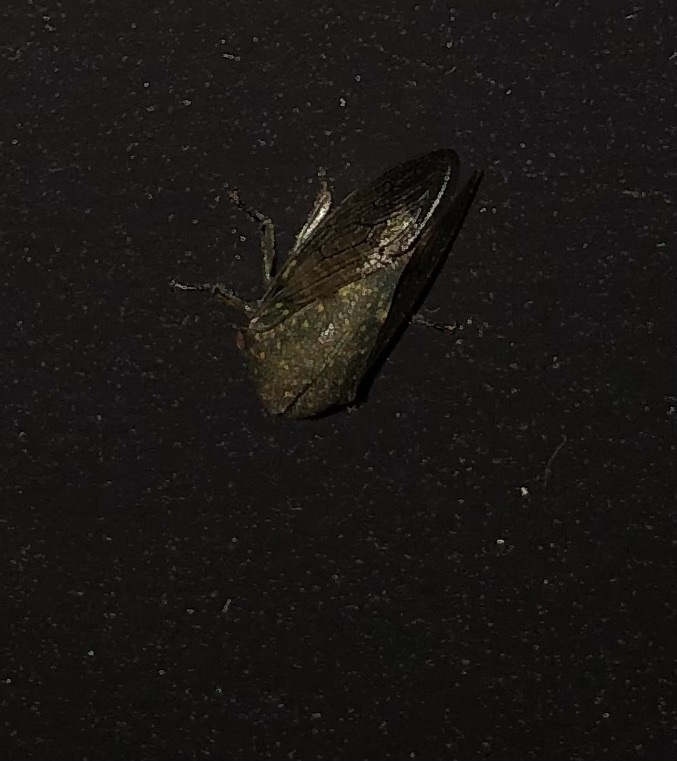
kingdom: Animalia
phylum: Arthropoda
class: Insecta
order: Hemiptera
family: Membracidae
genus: Platycotis
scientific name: Platycotis vittatus
